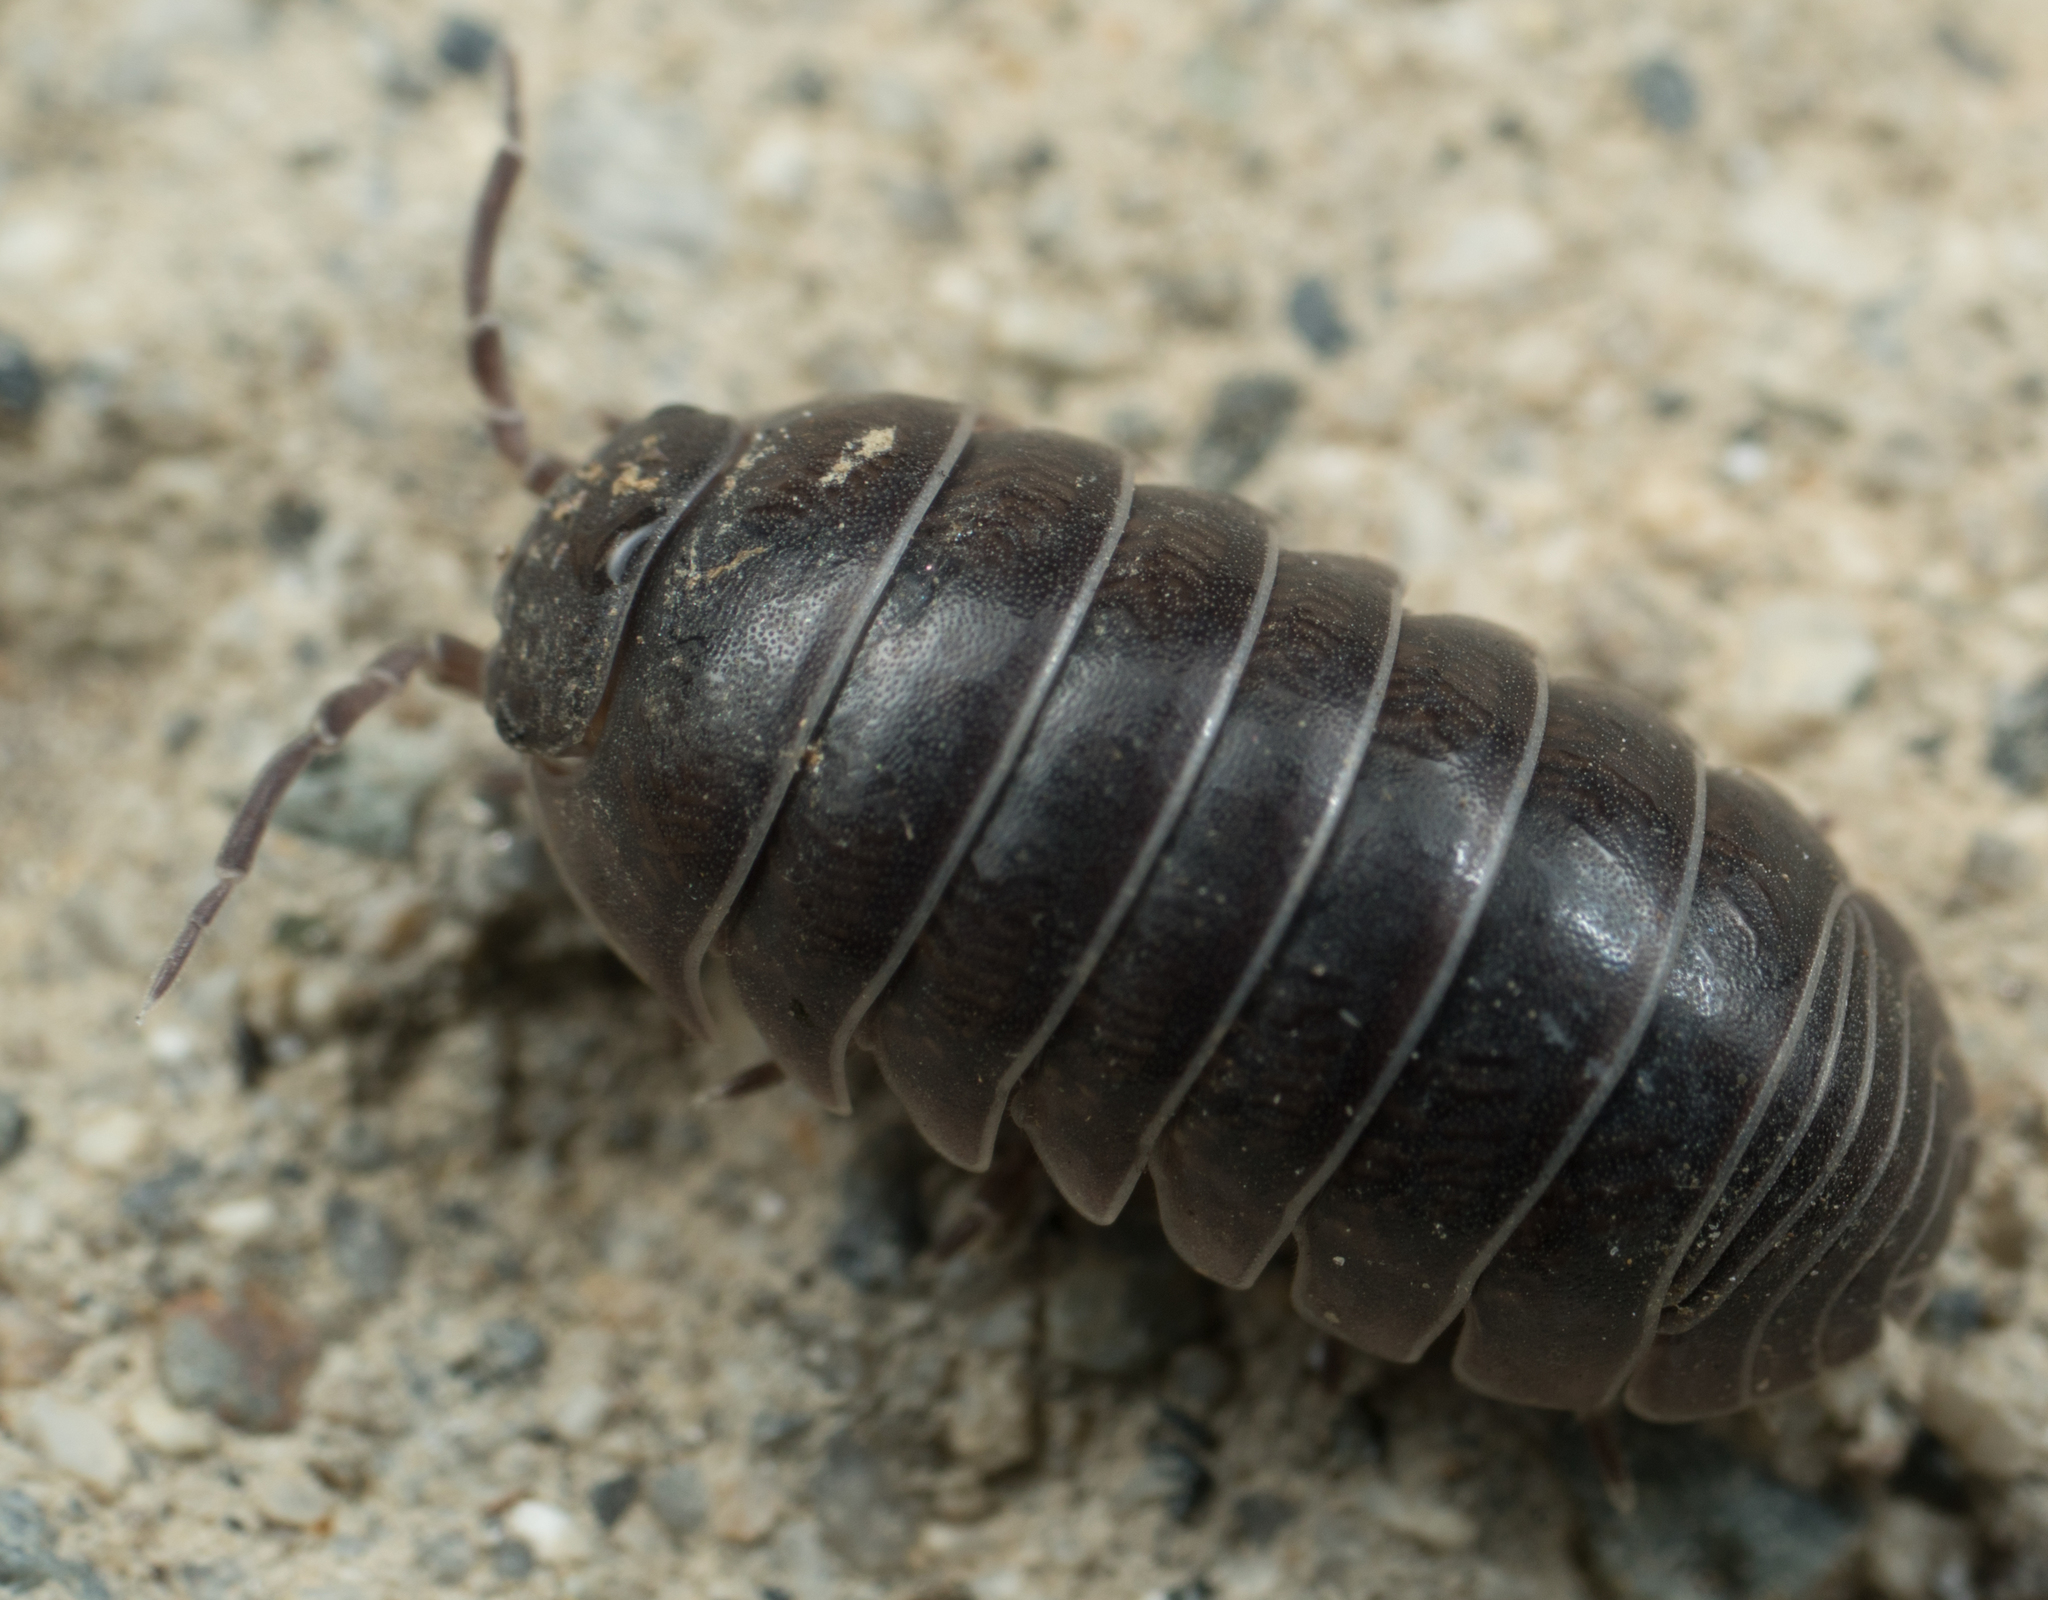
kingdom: Animalia
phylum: Arthropoda
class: Malacostraca
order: Isopoda
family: Armadillidiidae
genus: Armadillidium
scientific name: Armadillidium vulgare
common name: Common pill woodlouse
